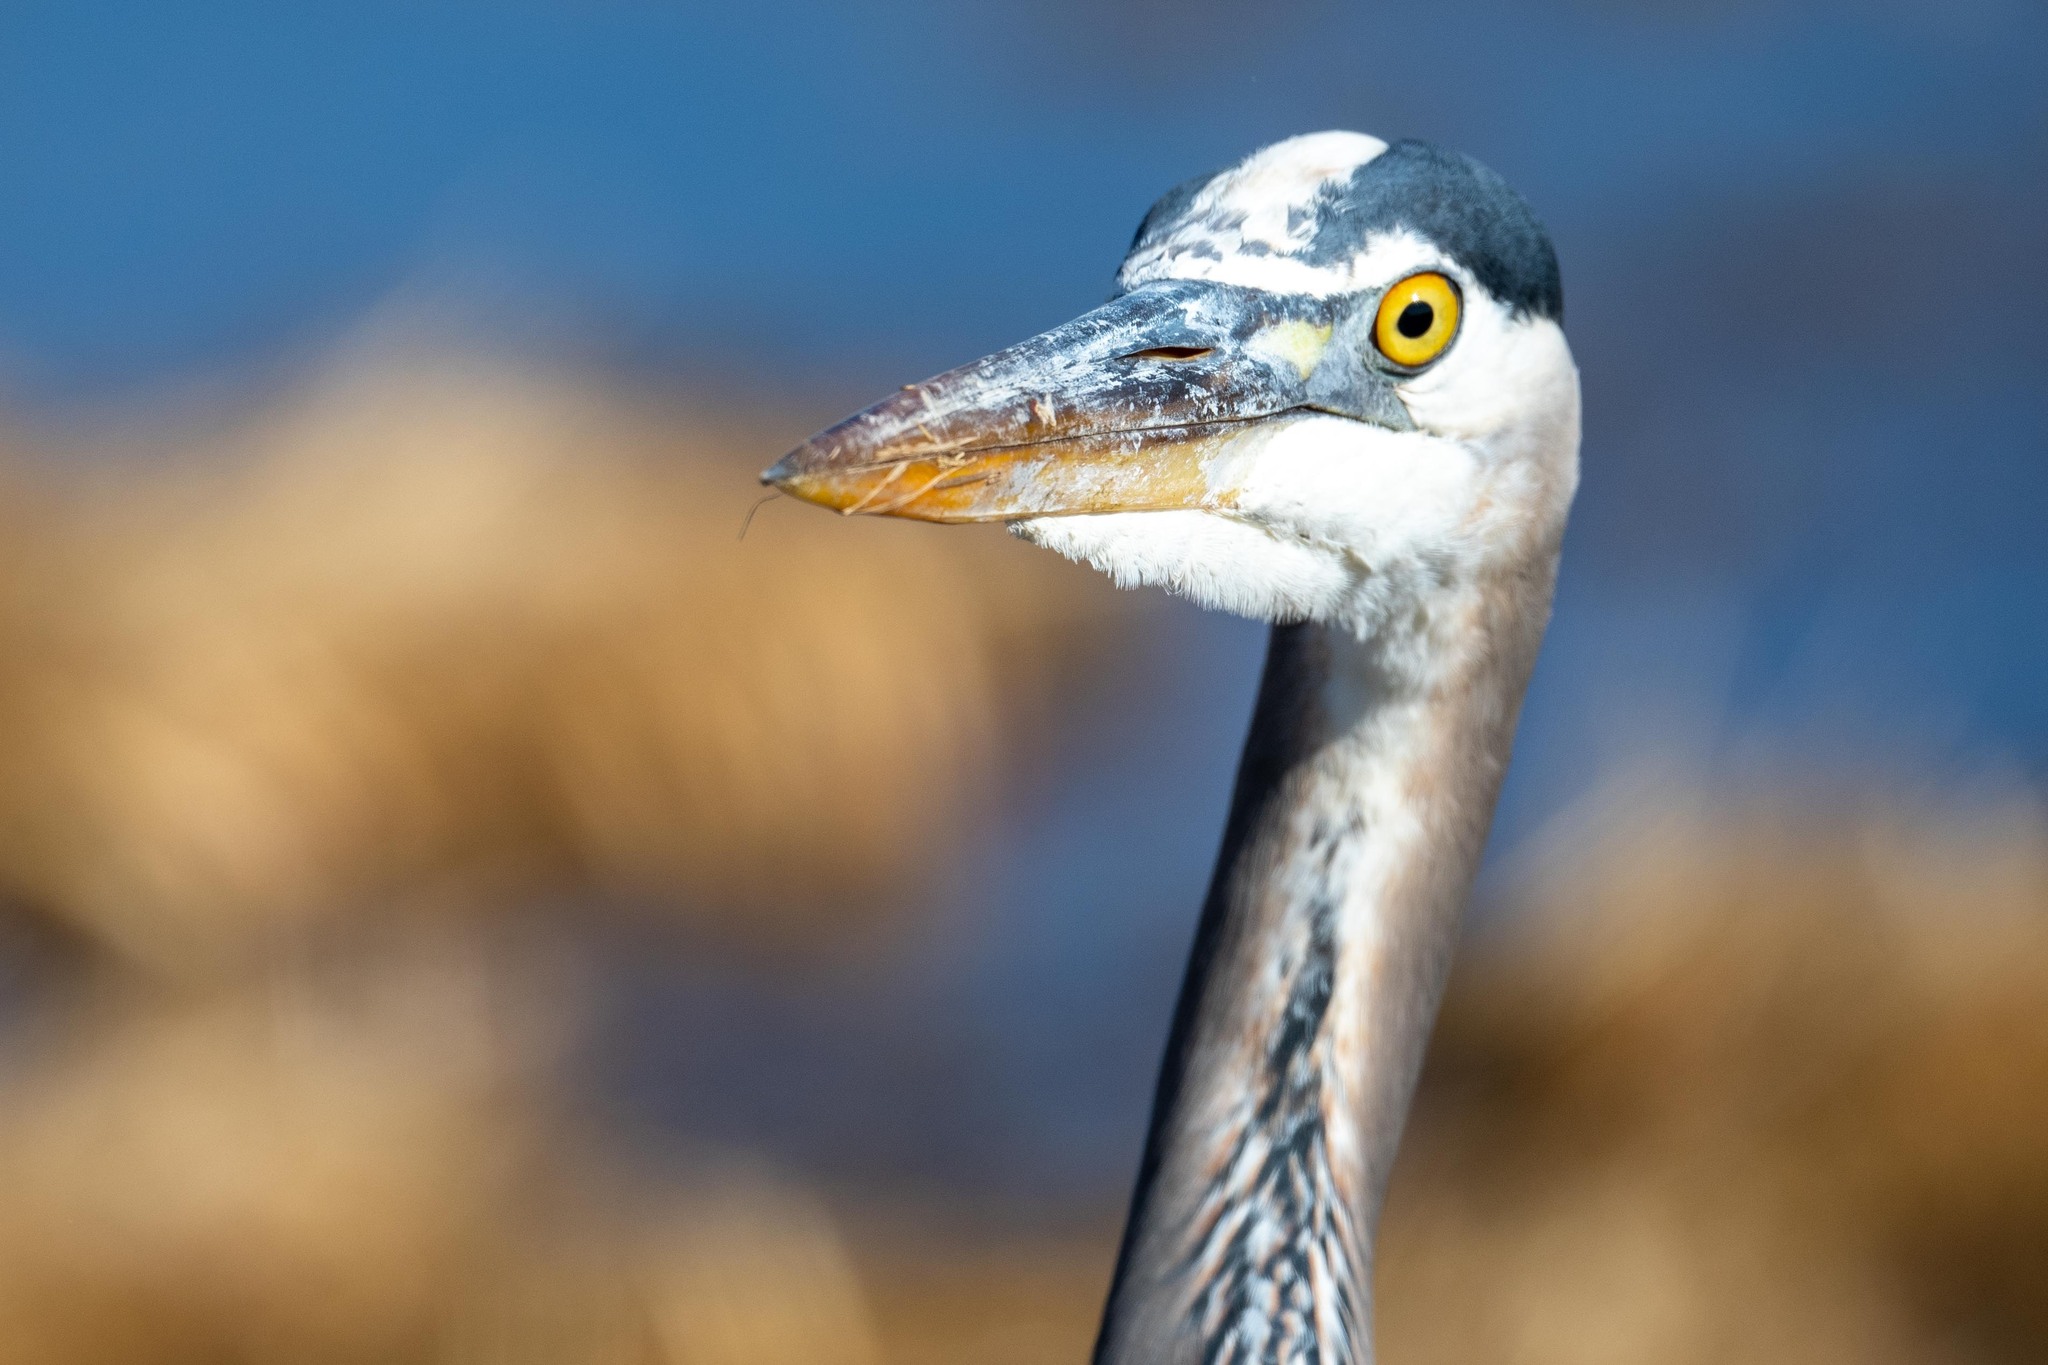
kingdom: Animalia
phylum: Chordata
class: Aves
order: Pelecaniformes
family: Ardeidae
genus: Ardea
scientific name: Ardea herodias
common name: Great blue heron
